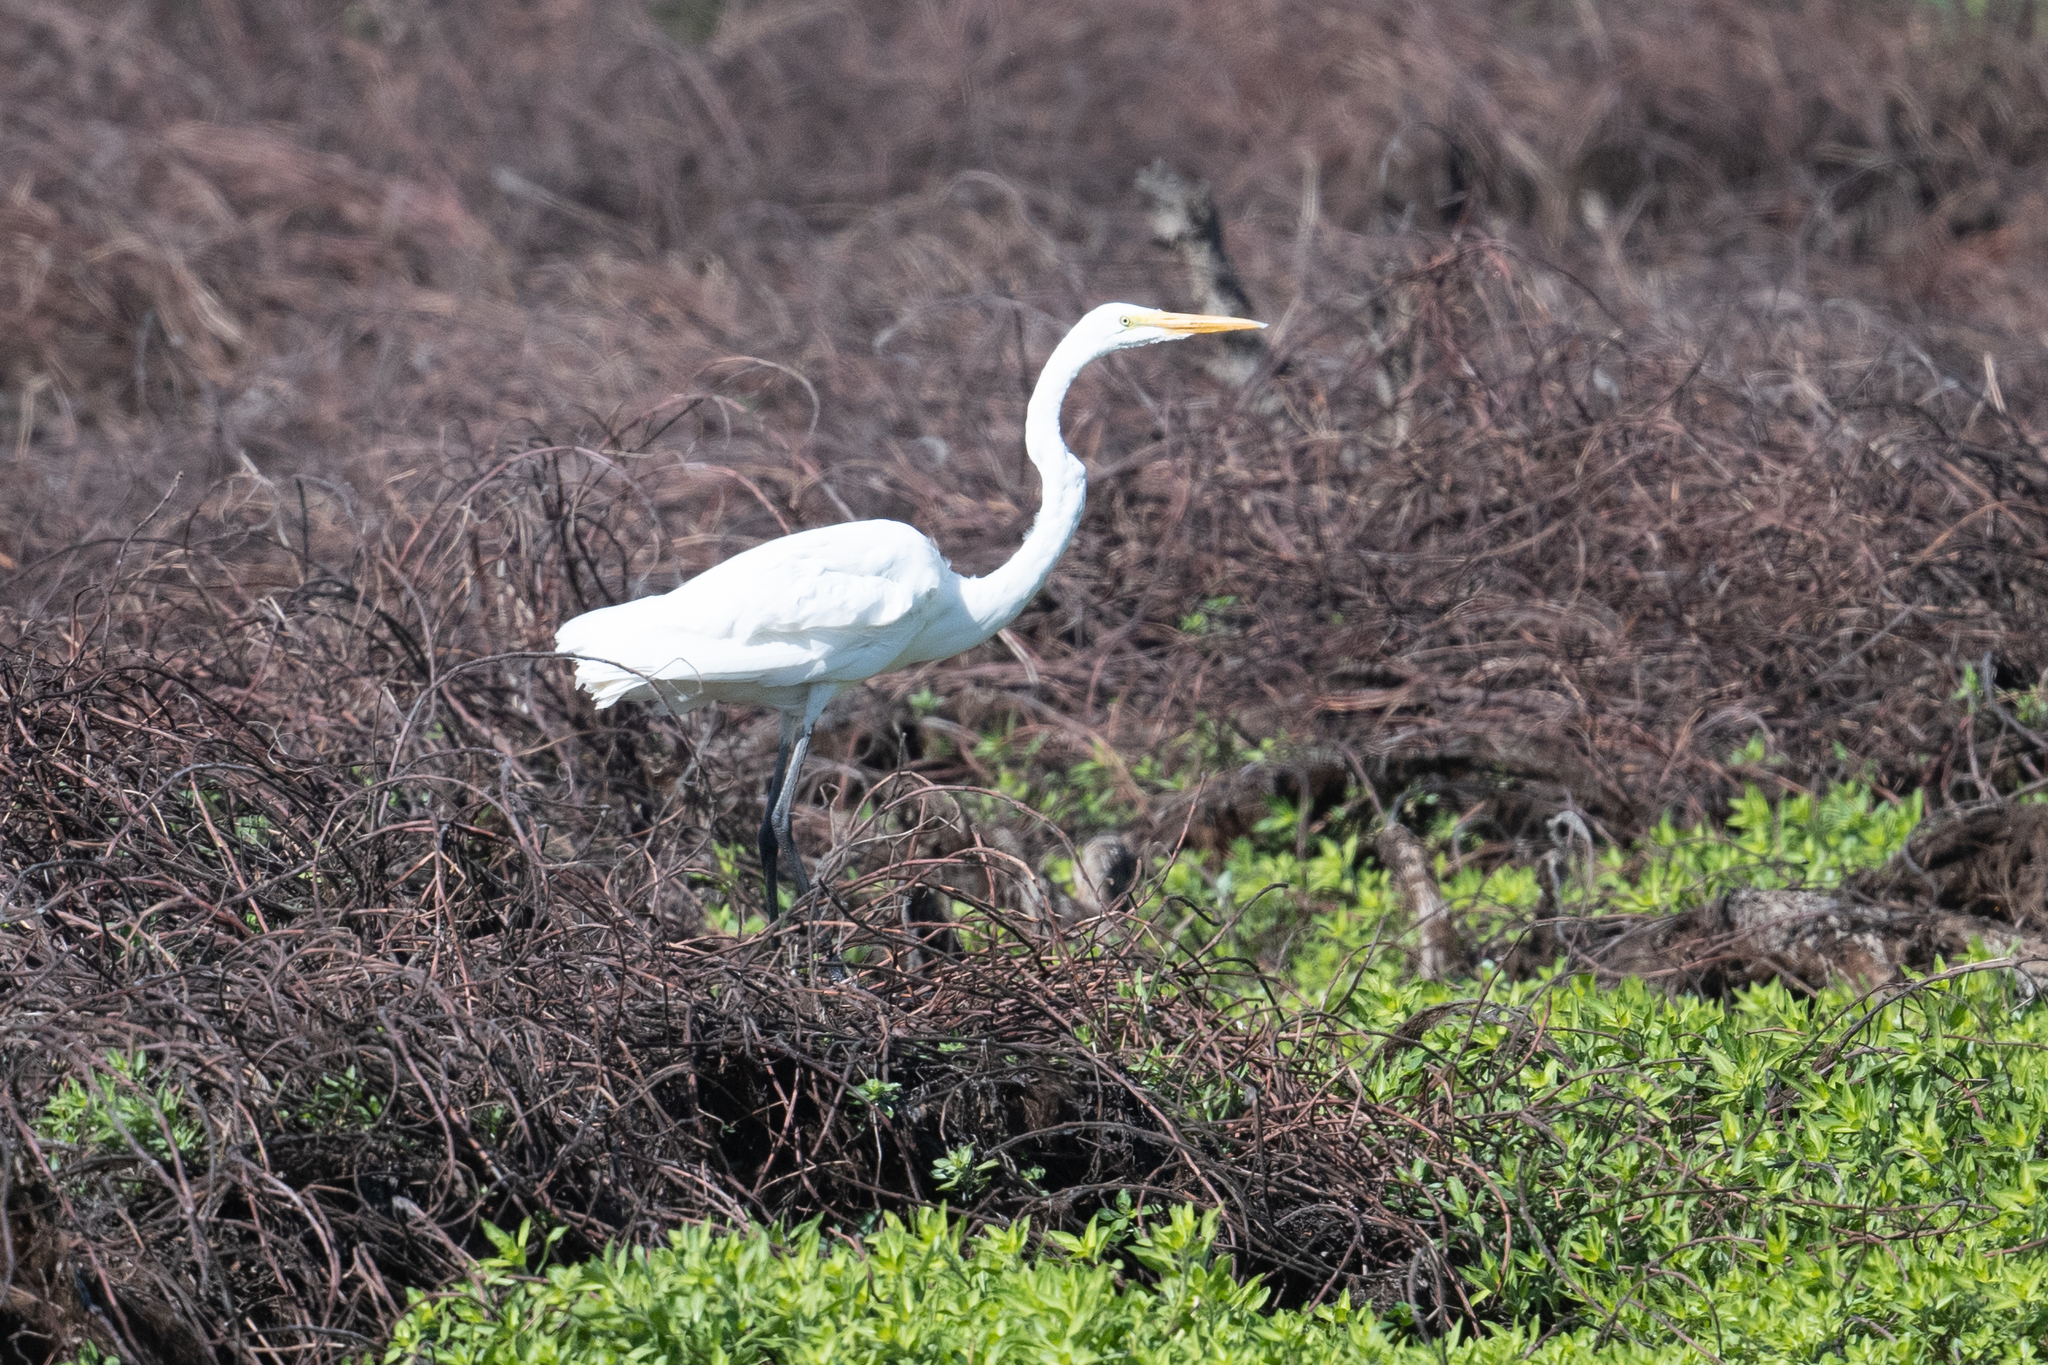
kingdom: Animalia
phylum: Chordata
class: Aves
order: Pelecaniformes
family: Ardeidae
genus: Ardea
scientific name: Ardea alba
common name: Great egret
